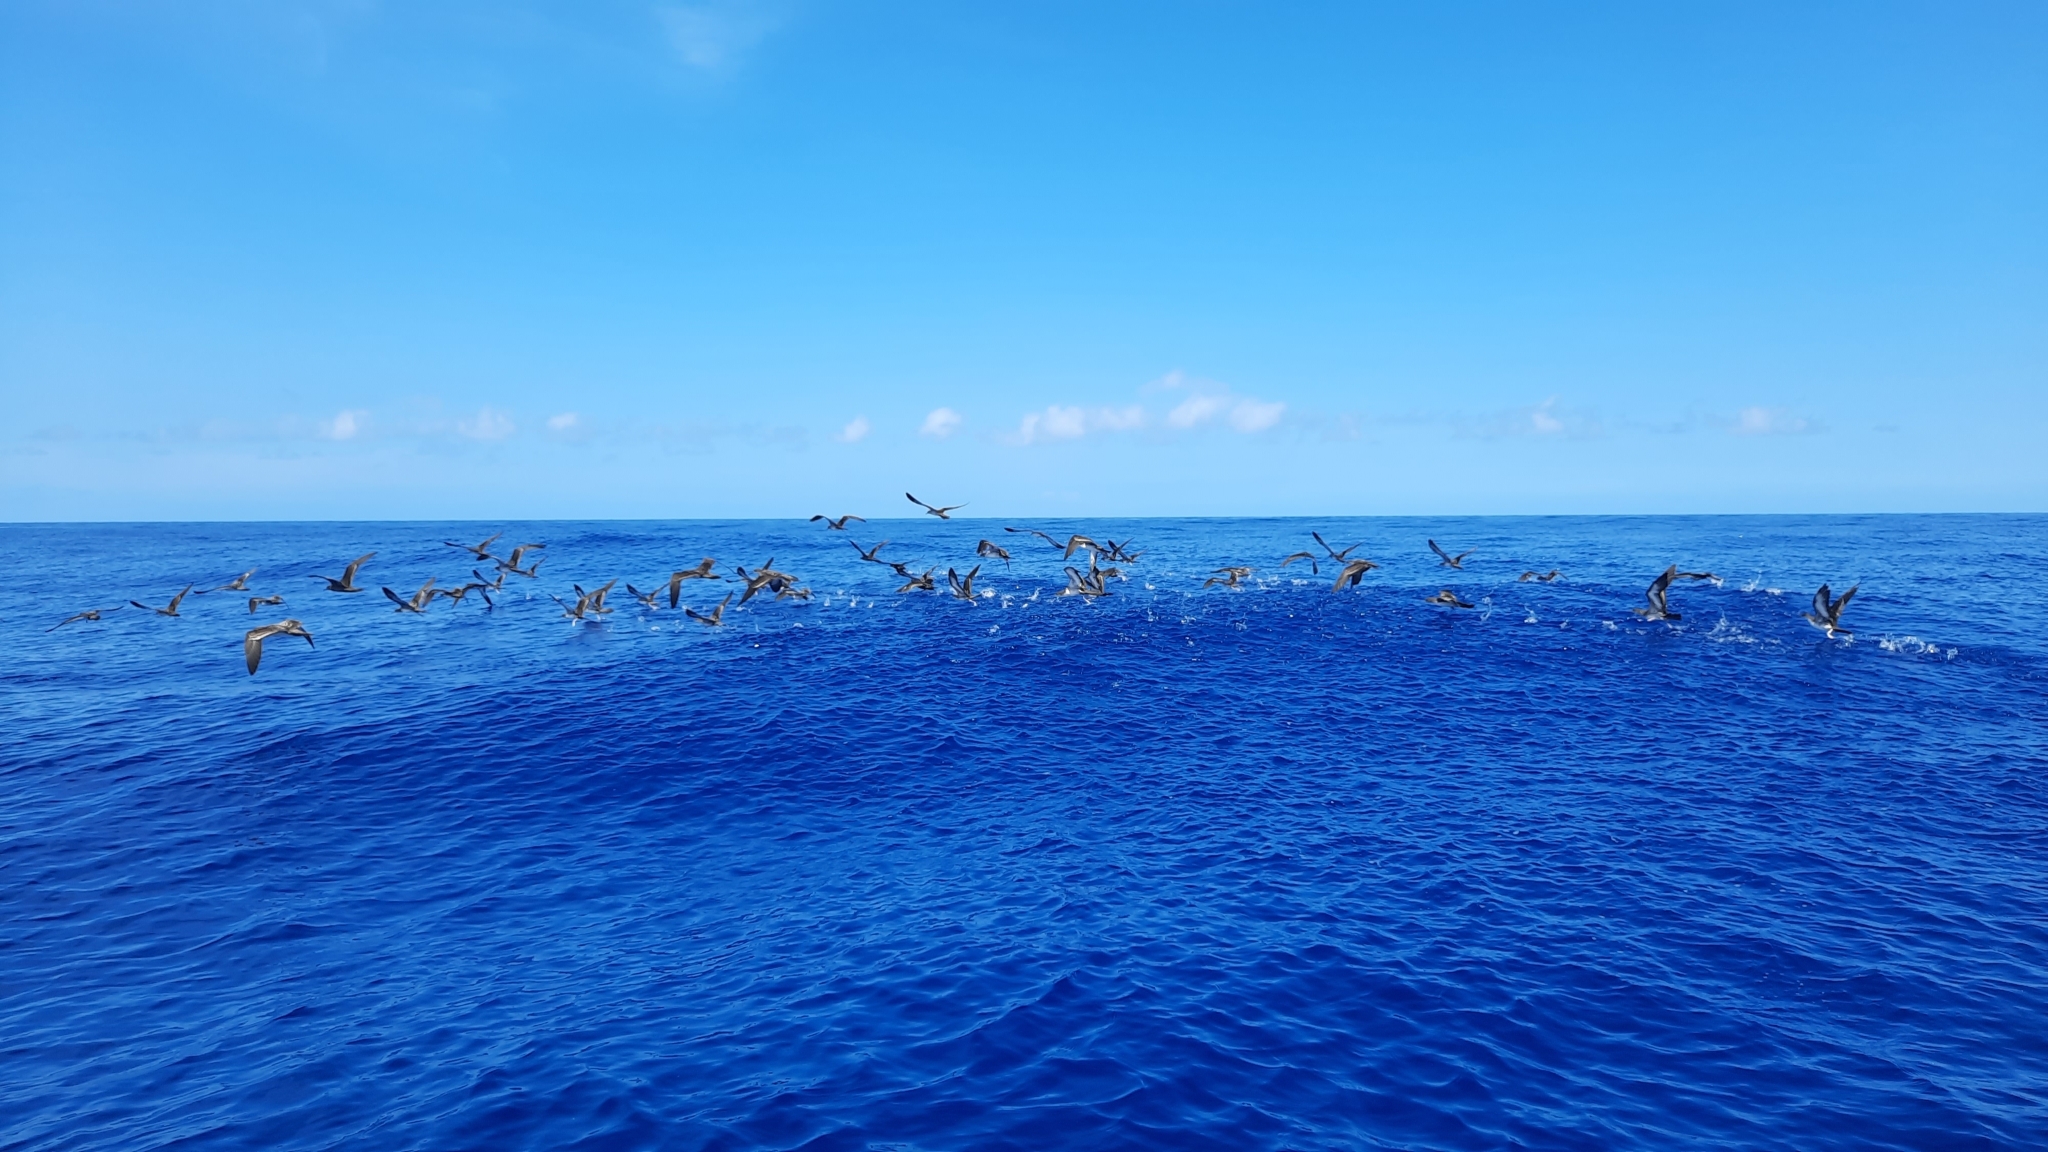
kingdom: Animalia
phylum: Chordata
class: Aves
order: Procellariiformes
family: Procellariidae
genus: Puffinus
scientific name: Puffinus pacificus
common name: Wedge-tailed shearwater
